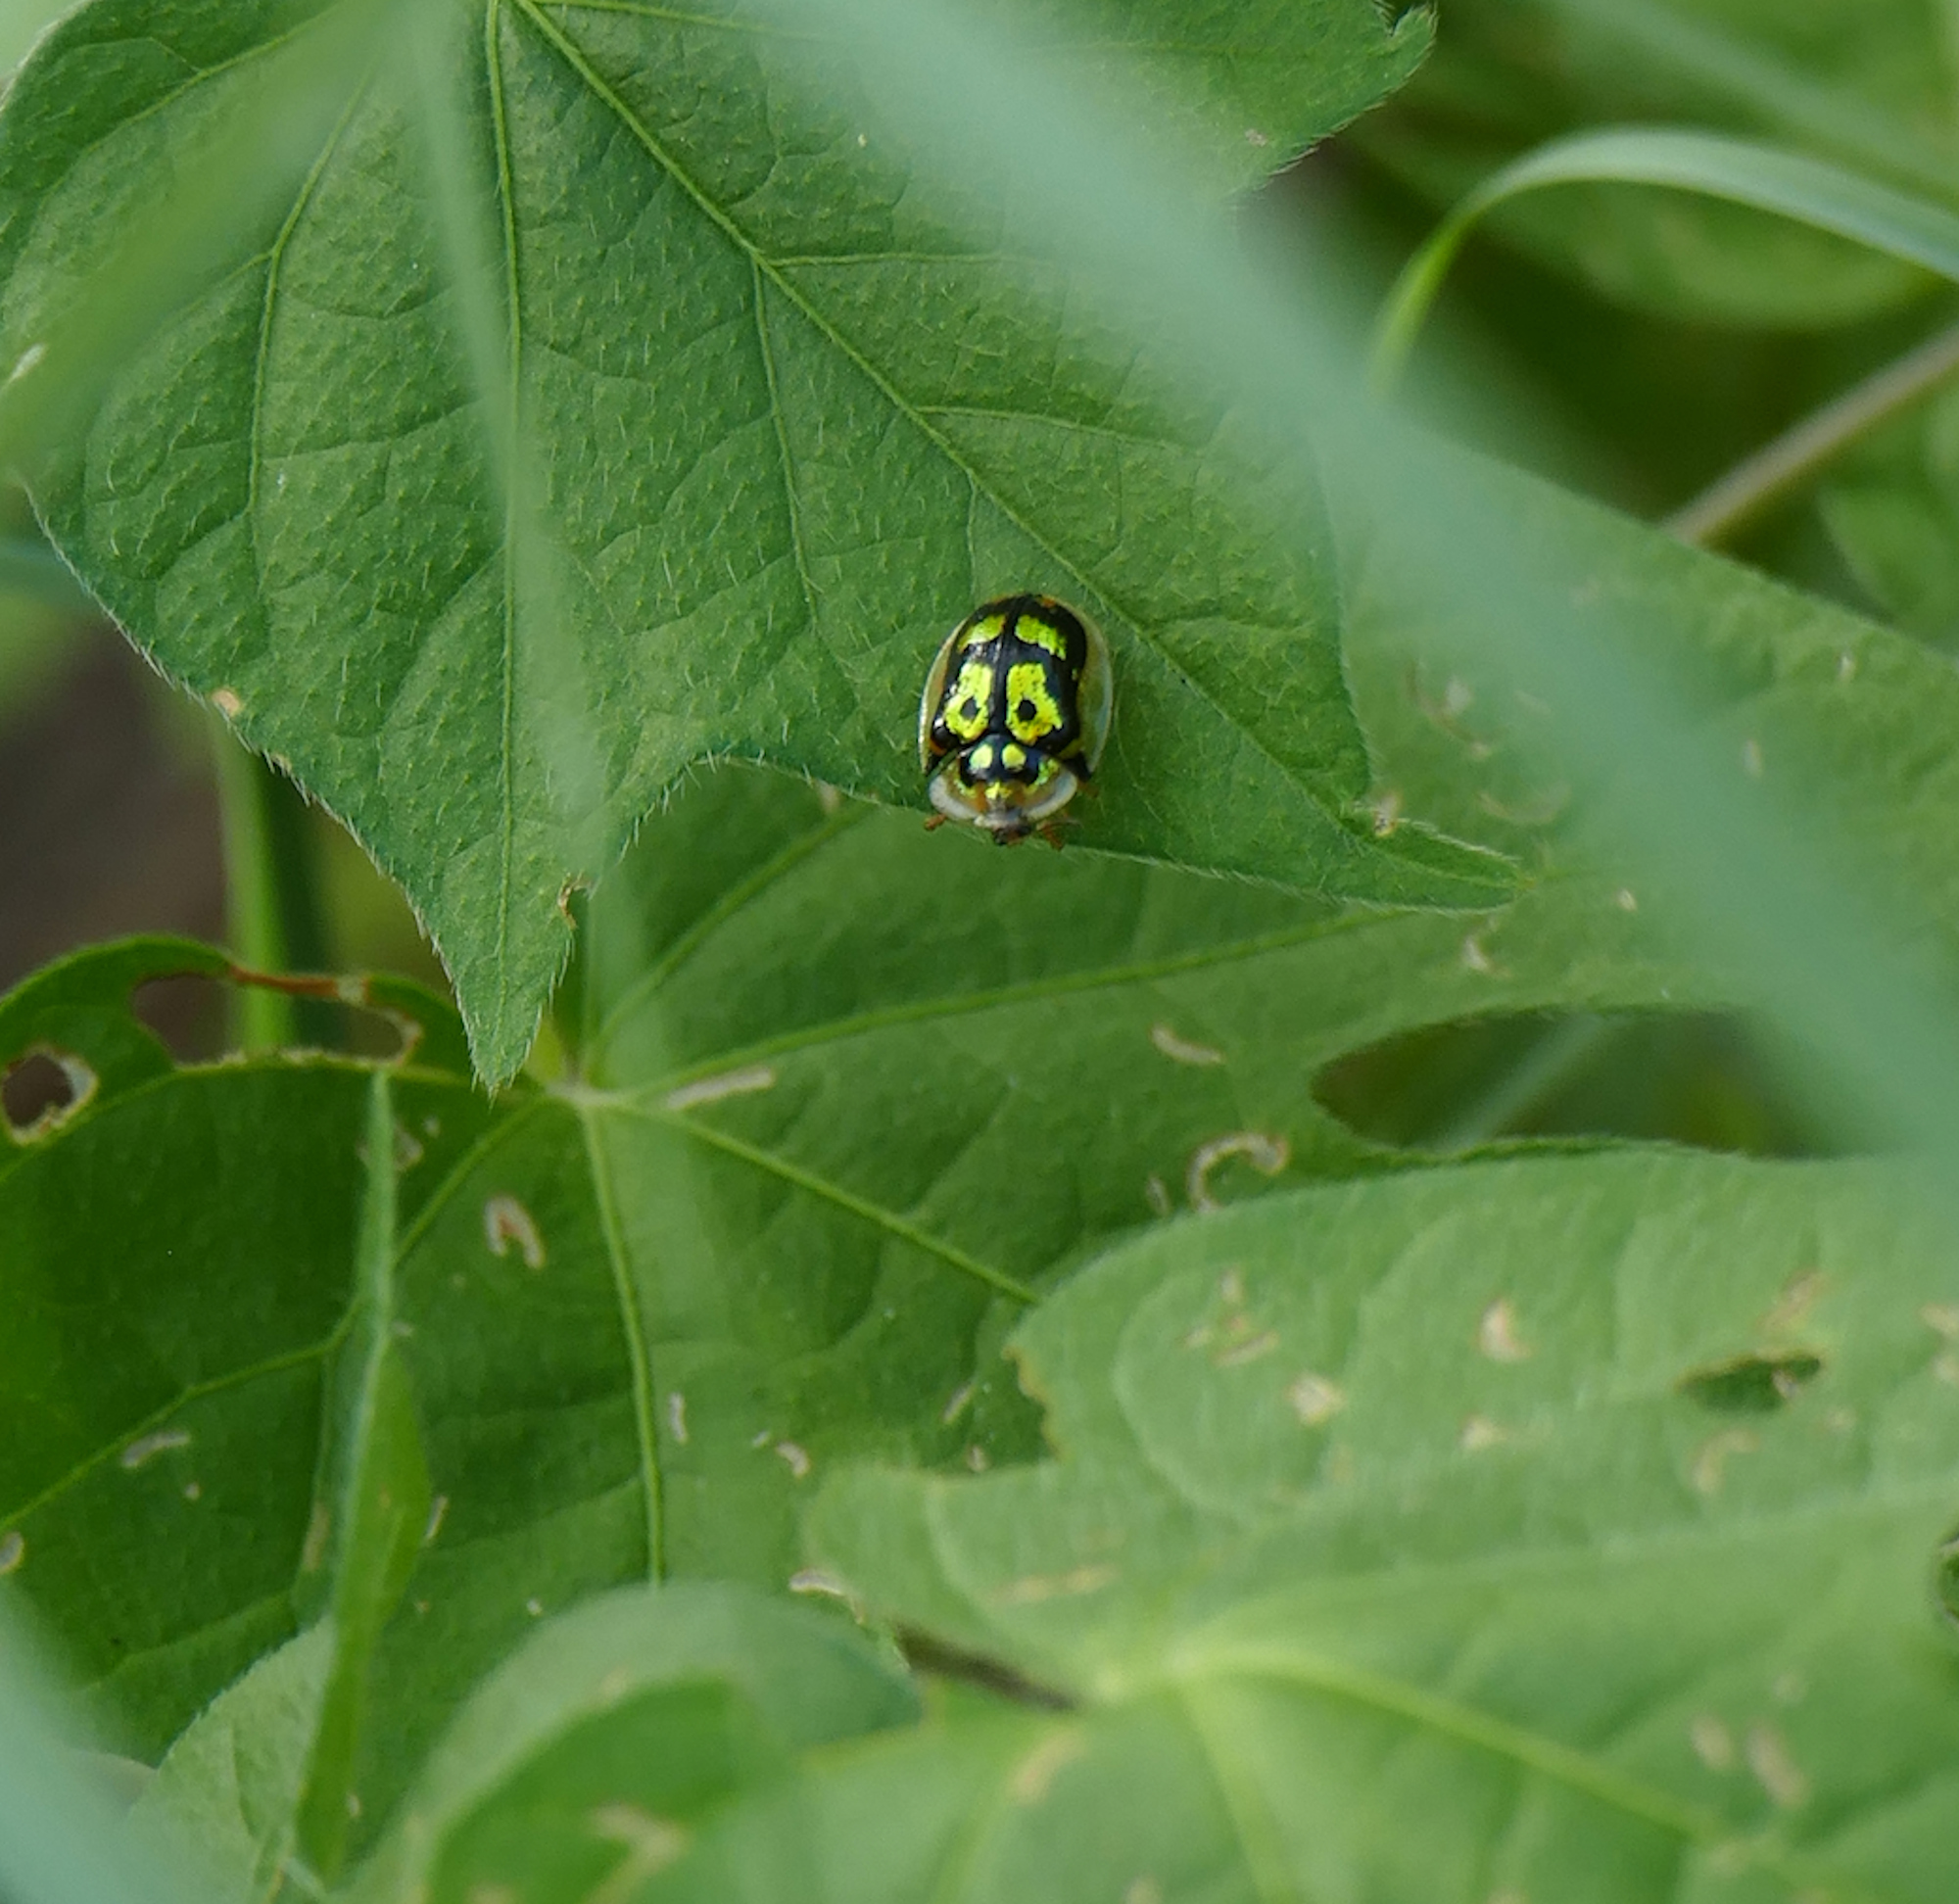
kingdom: Animalia
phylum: Arthropoda
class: Insecta
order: Coleoptera
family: Chrysomelidae
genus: Deloyala
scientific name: Deloyala lecontei
